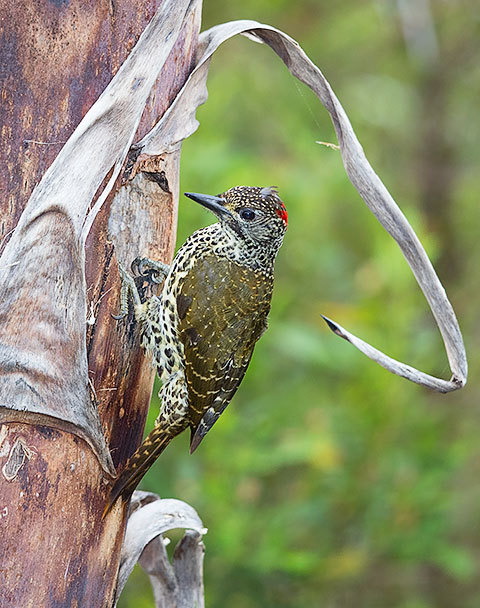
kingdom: Animalia
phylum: Chordata
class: Aves
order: Piciformes
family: Picidae
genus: Campethera
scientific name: Campethera notata
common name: Knysna woodpecker
